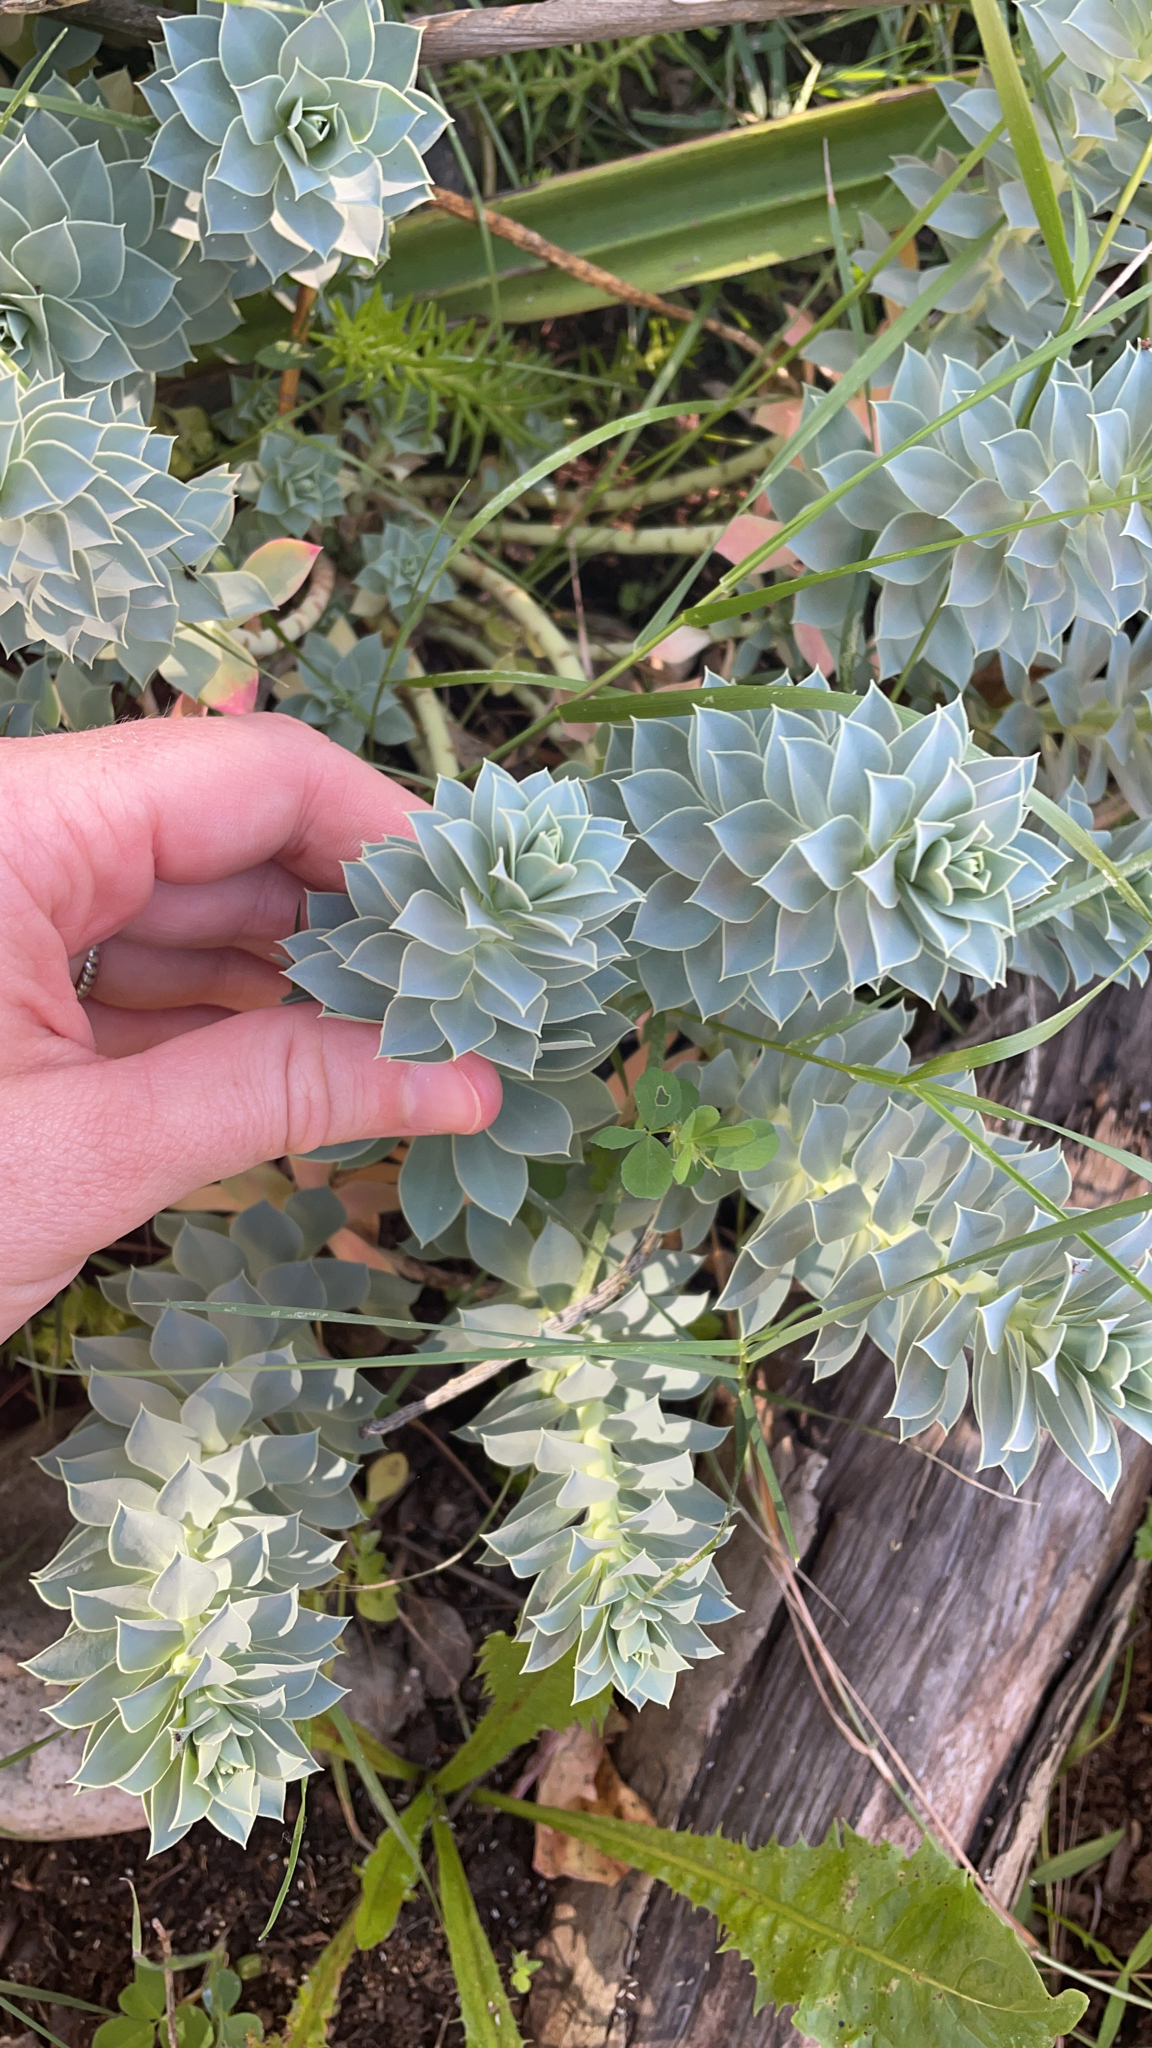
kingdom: Plantae
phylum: Tracheophyta
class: Magnoliopsida
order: Malpighiales
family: Euphorbiaceae
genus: Euphorbia
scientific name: Euphorbia myrsinites
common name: Myrtle spurge
